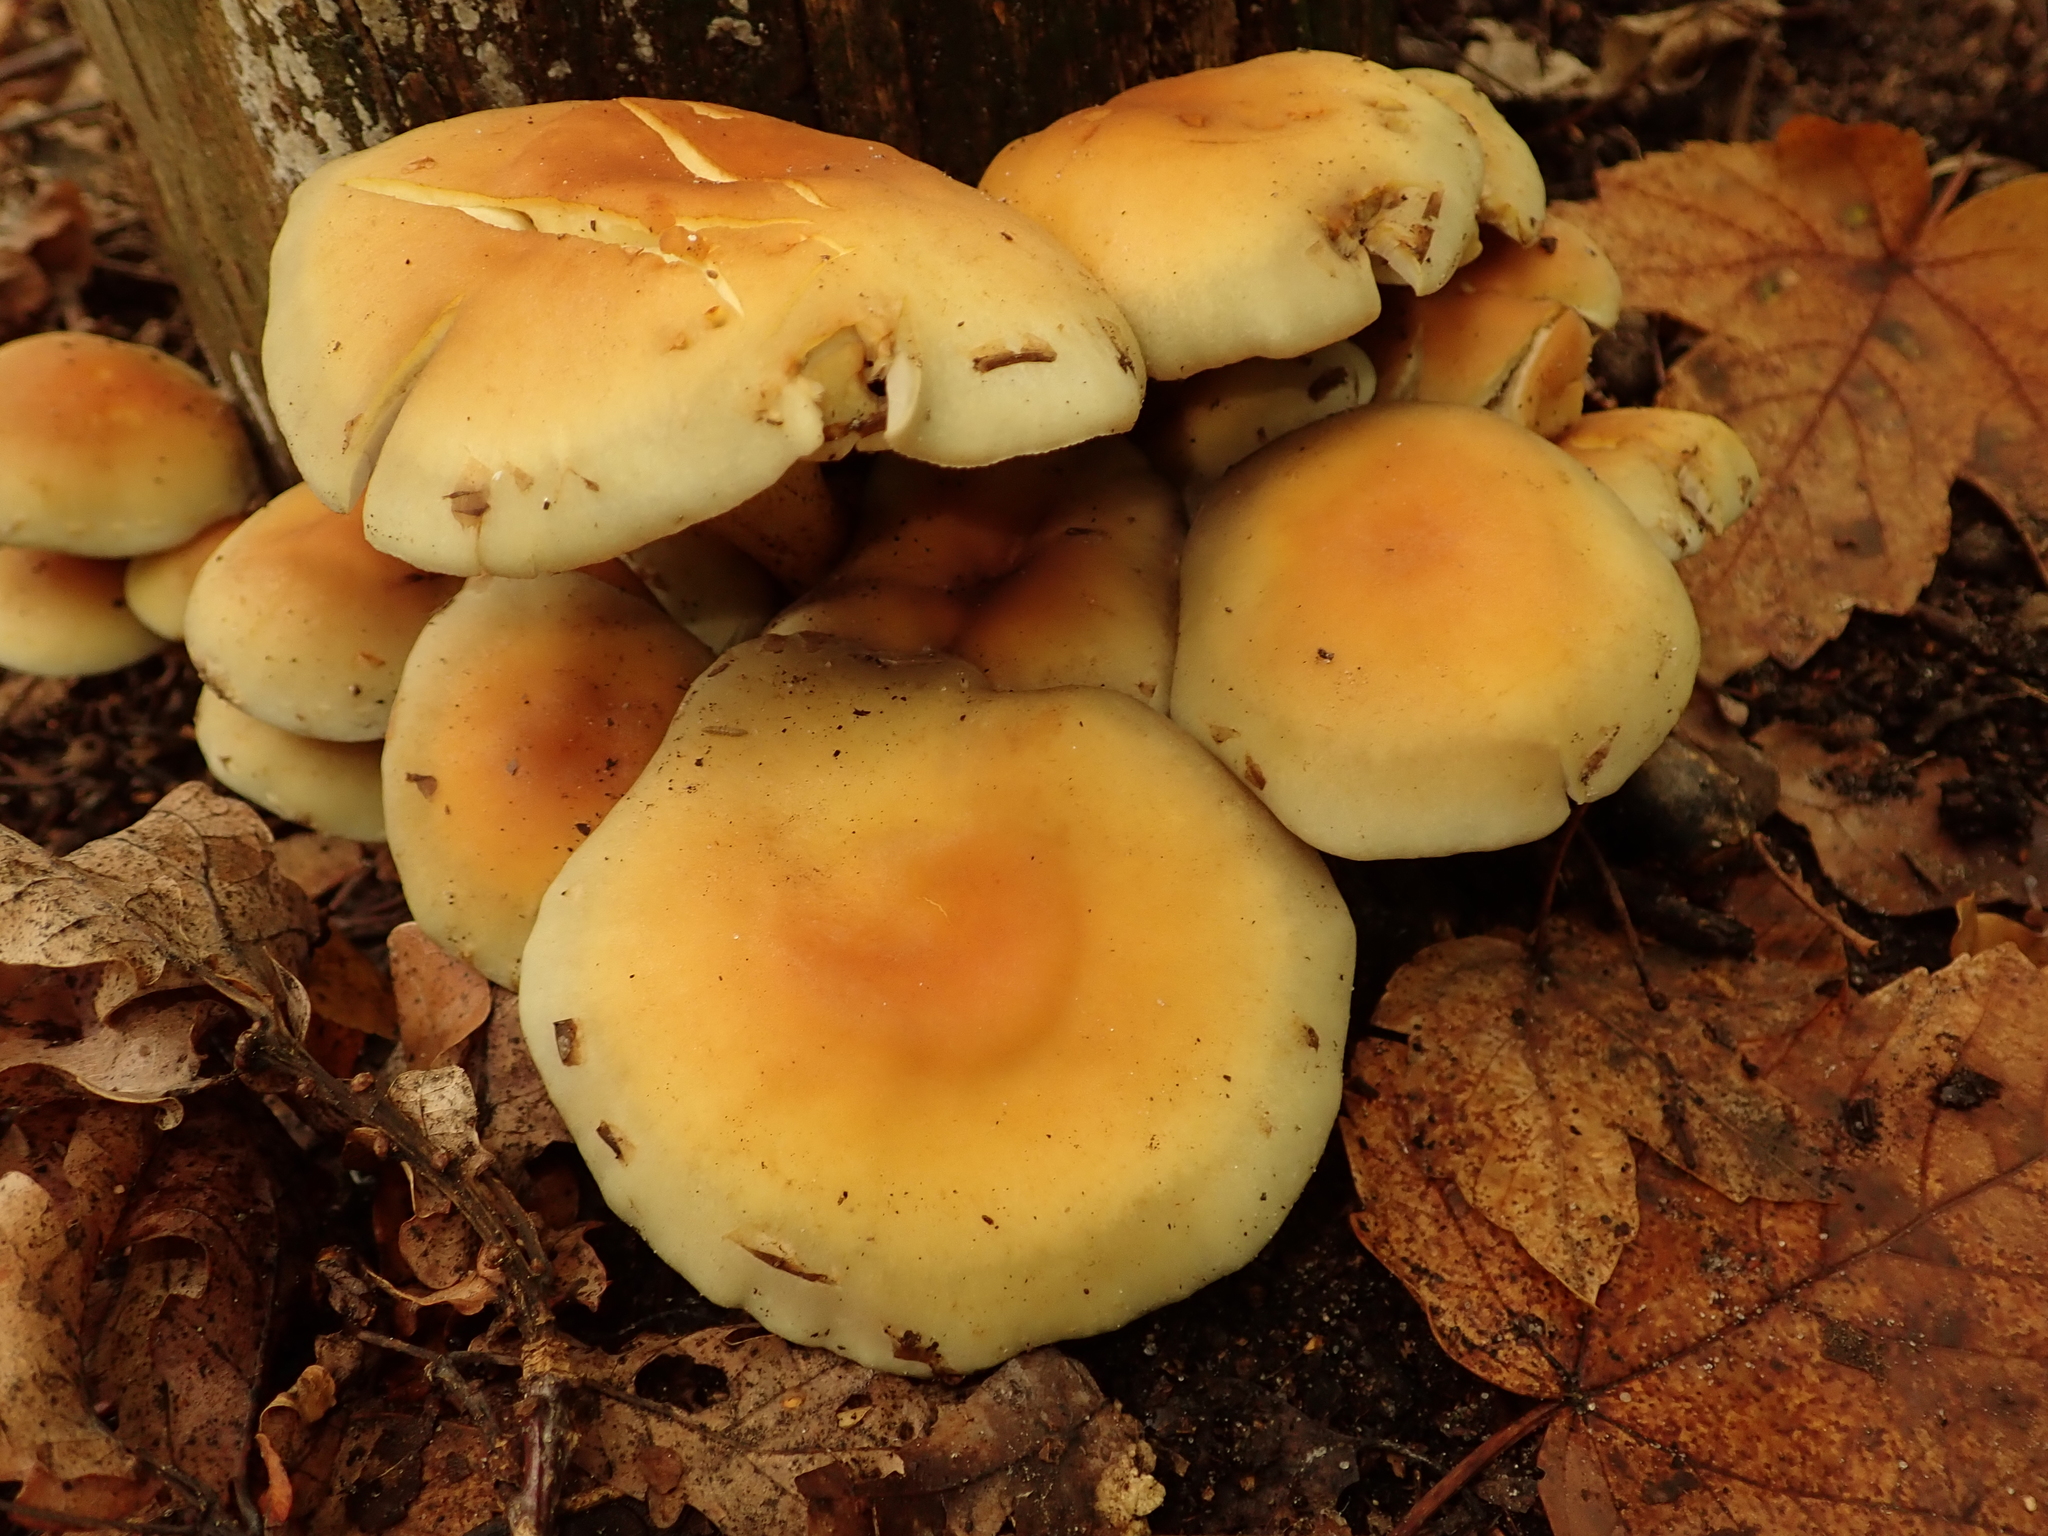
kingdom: Fungi
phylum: Basidiomycota
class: Agaricomycetes
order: Agaricales
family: Strophariaceae
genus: Hypholoma
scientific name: Hypholoma fasciculare
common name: Sulphur tuft
